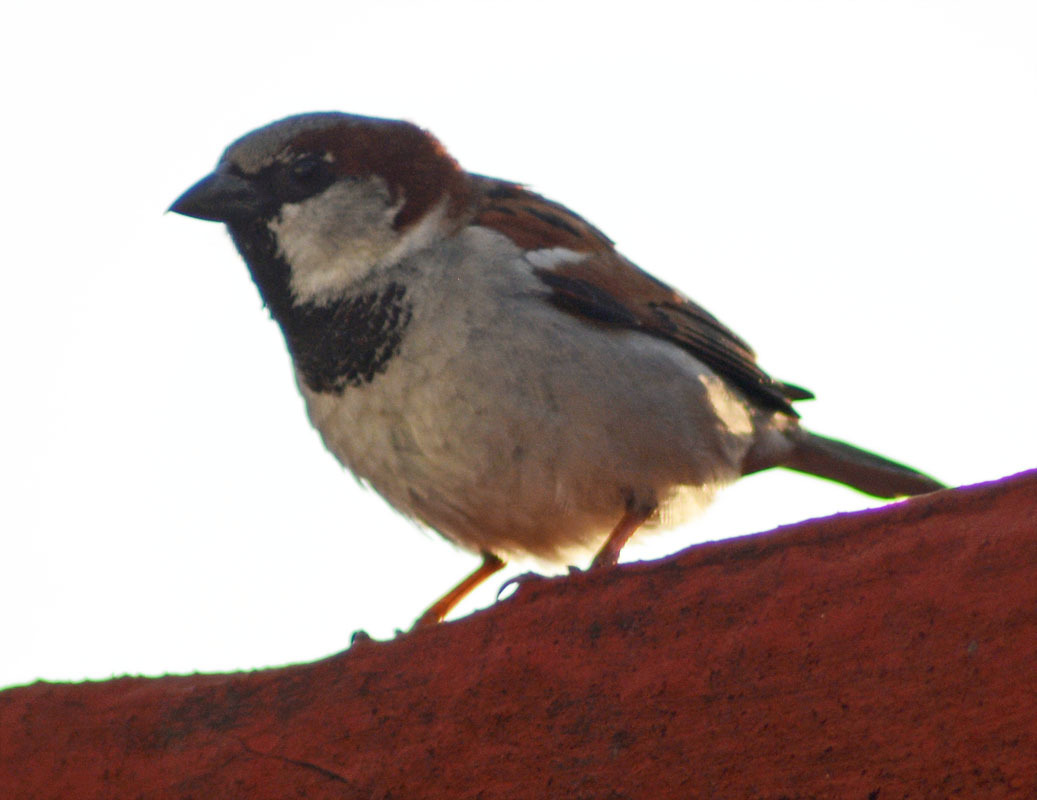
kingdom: Animalia
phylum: Chordata
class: Aves
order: Passeriformes
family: Passeridae
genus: Passer
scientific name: Passer domesticus
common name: House sparrow
